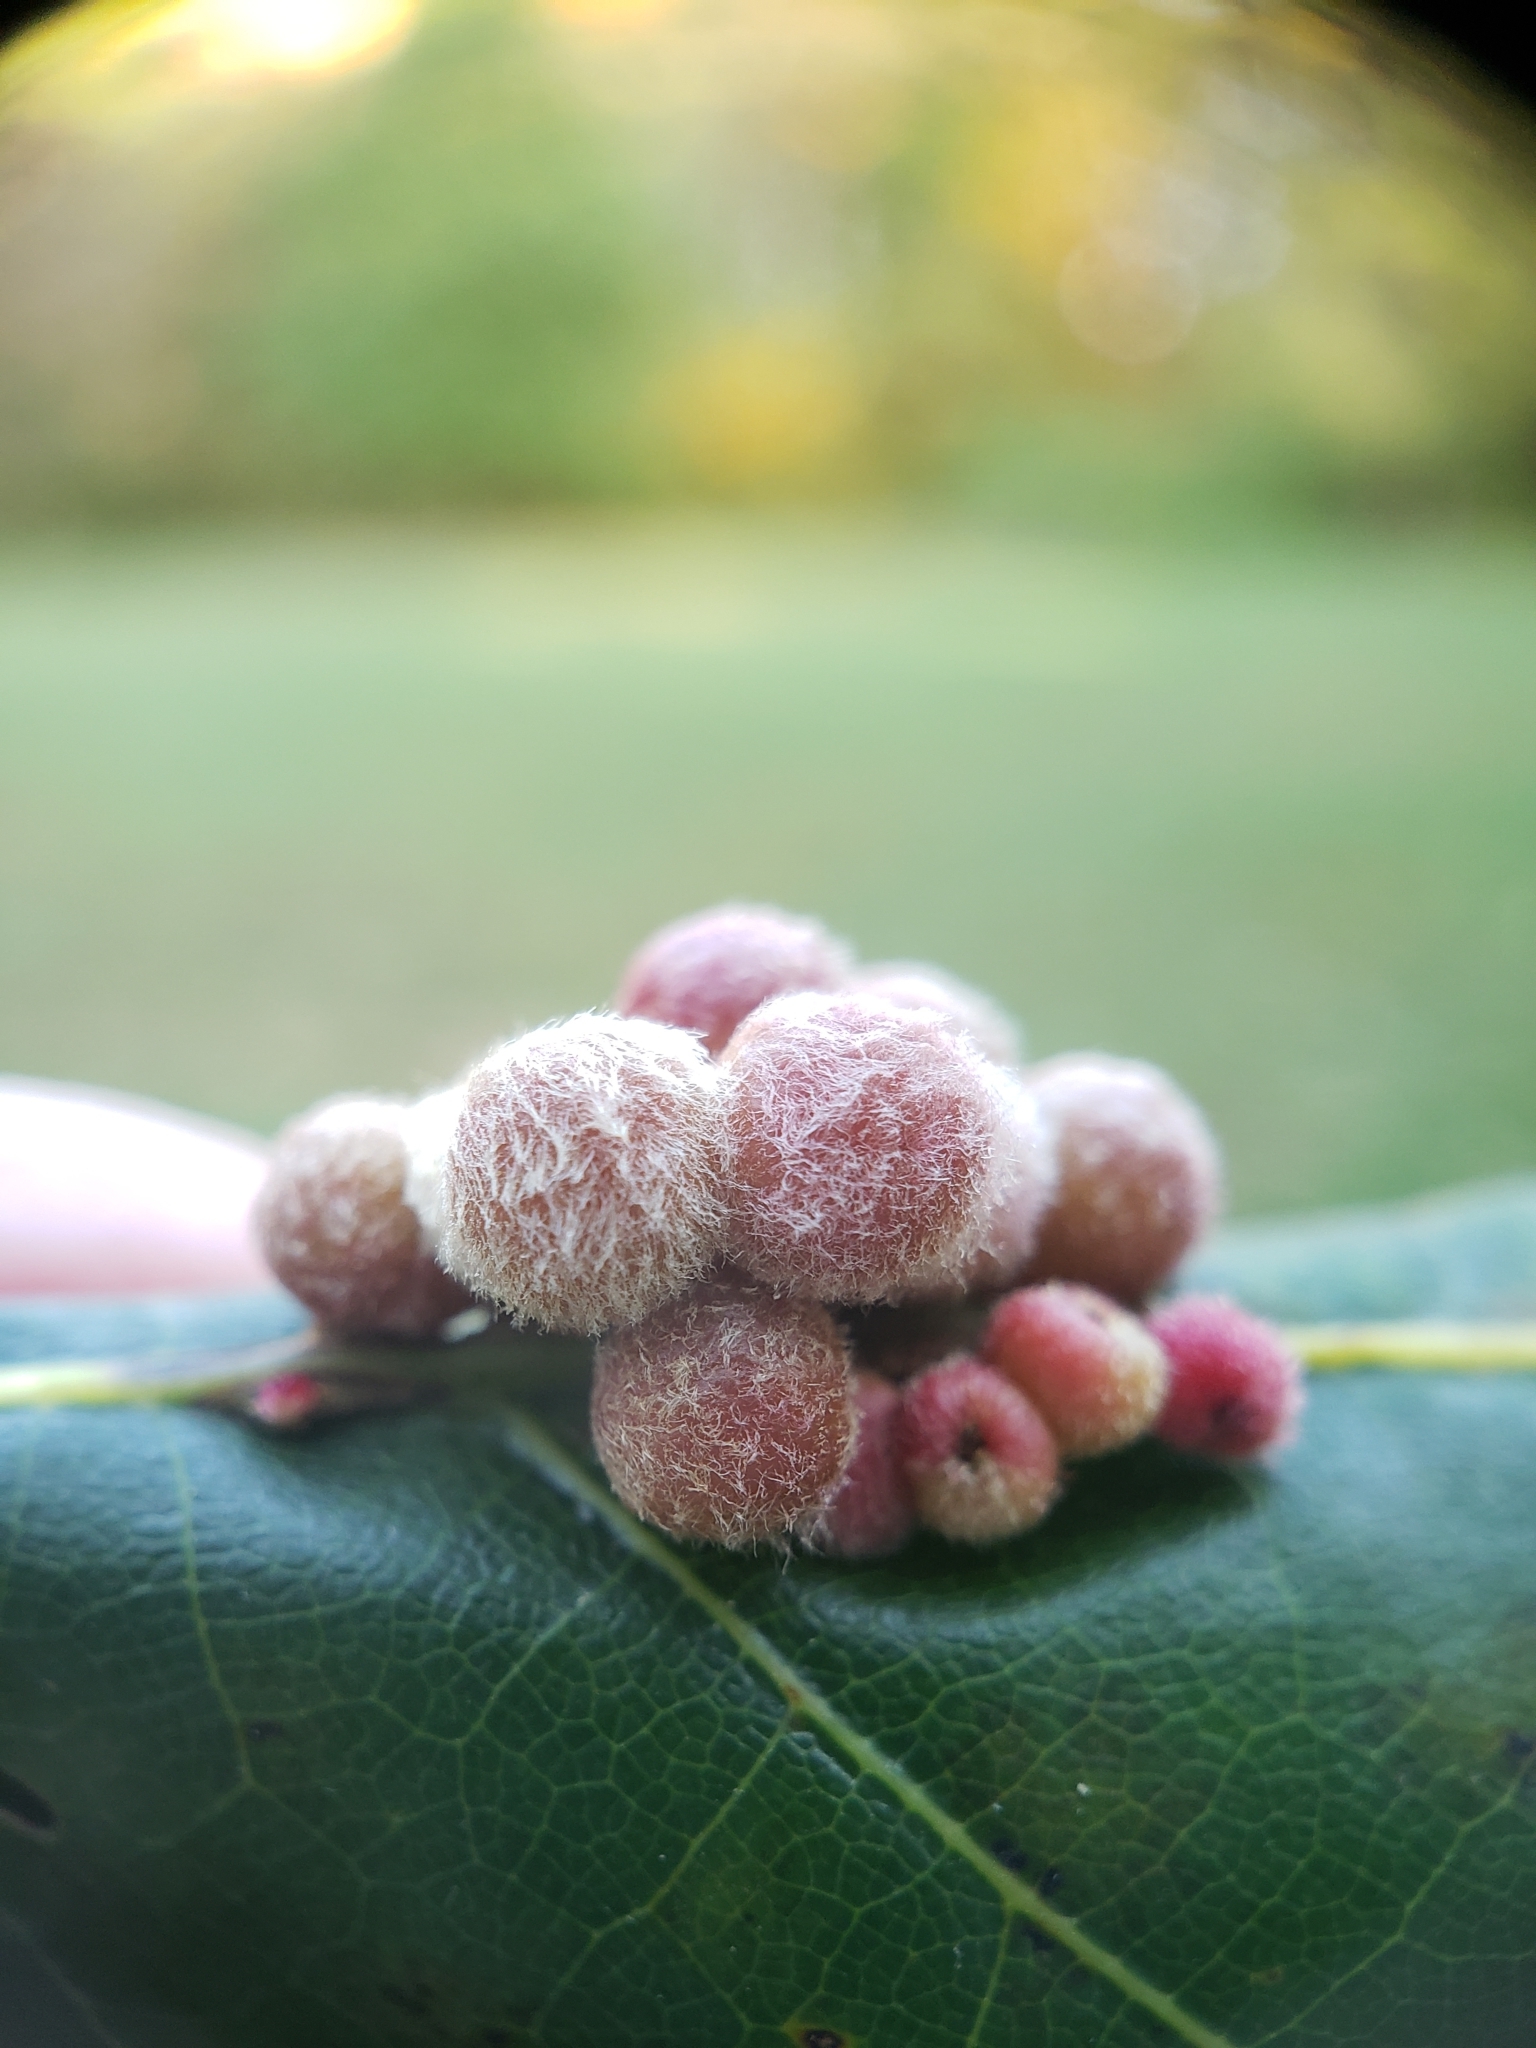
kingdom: Animalia
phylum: Arthropoda
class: Insecta
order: Hymenoptera
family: Cynipidae
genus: Callirhytis
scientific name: Callirhytis
